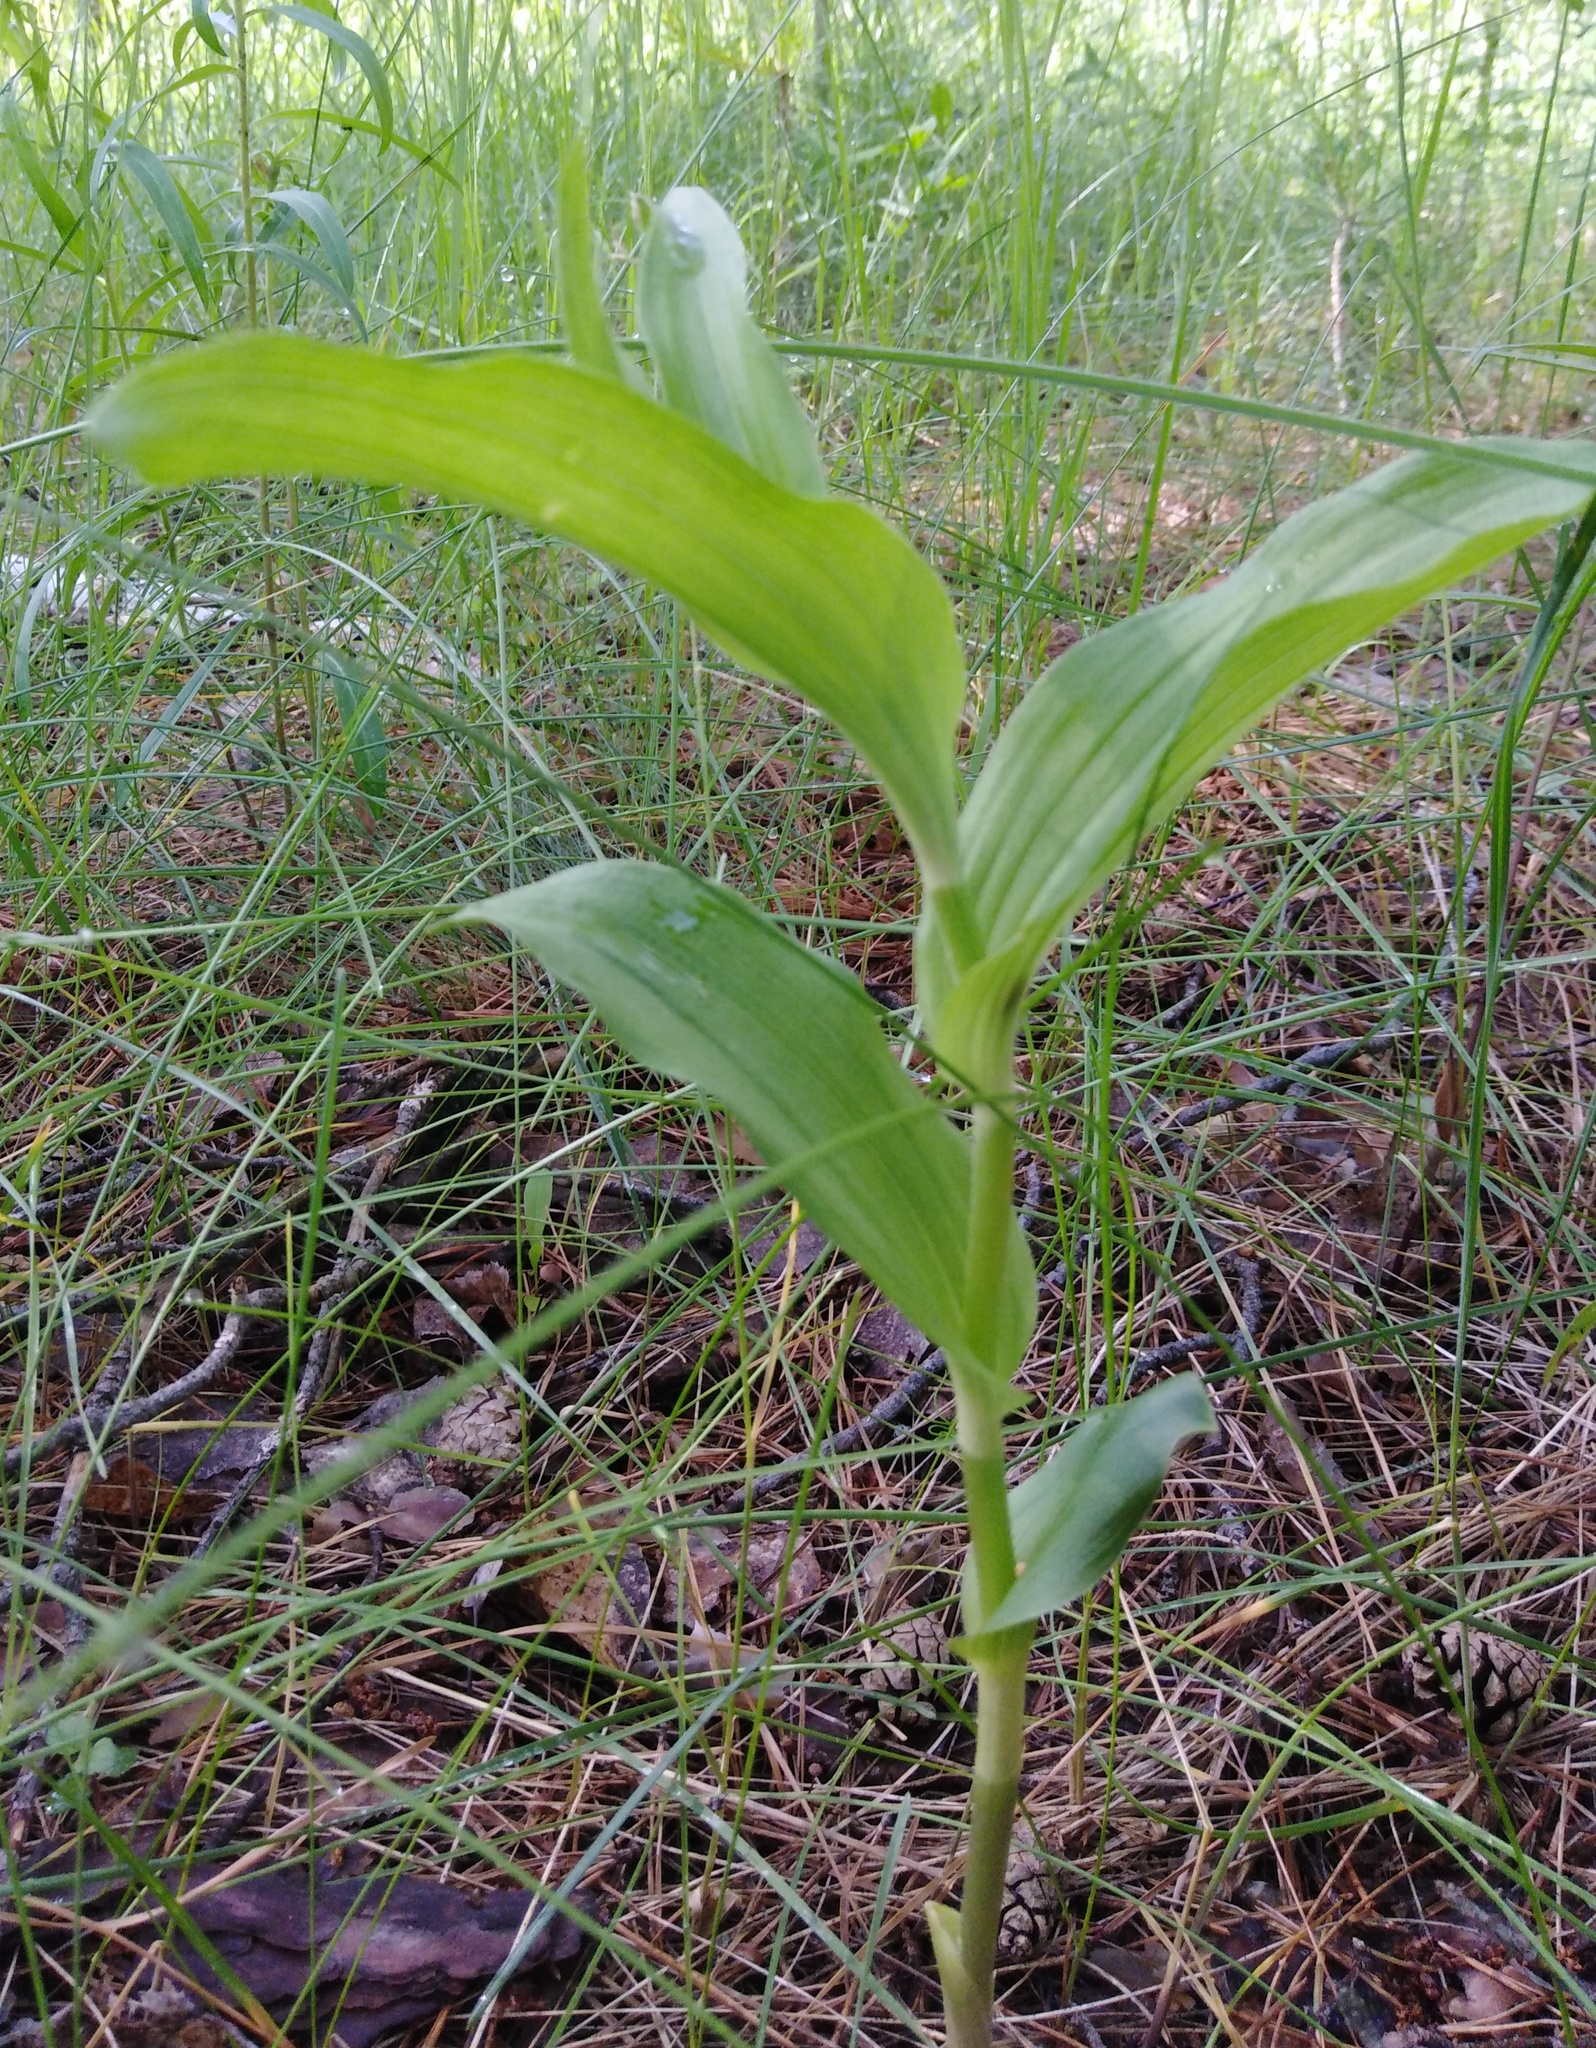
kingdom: Plantae
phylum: Tracheophyta
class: Liliopsida
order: Asparagales
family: Orchidaceae
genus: Epipactis
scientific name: Epipactis helleborine
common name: Broad-leaved helleborine
